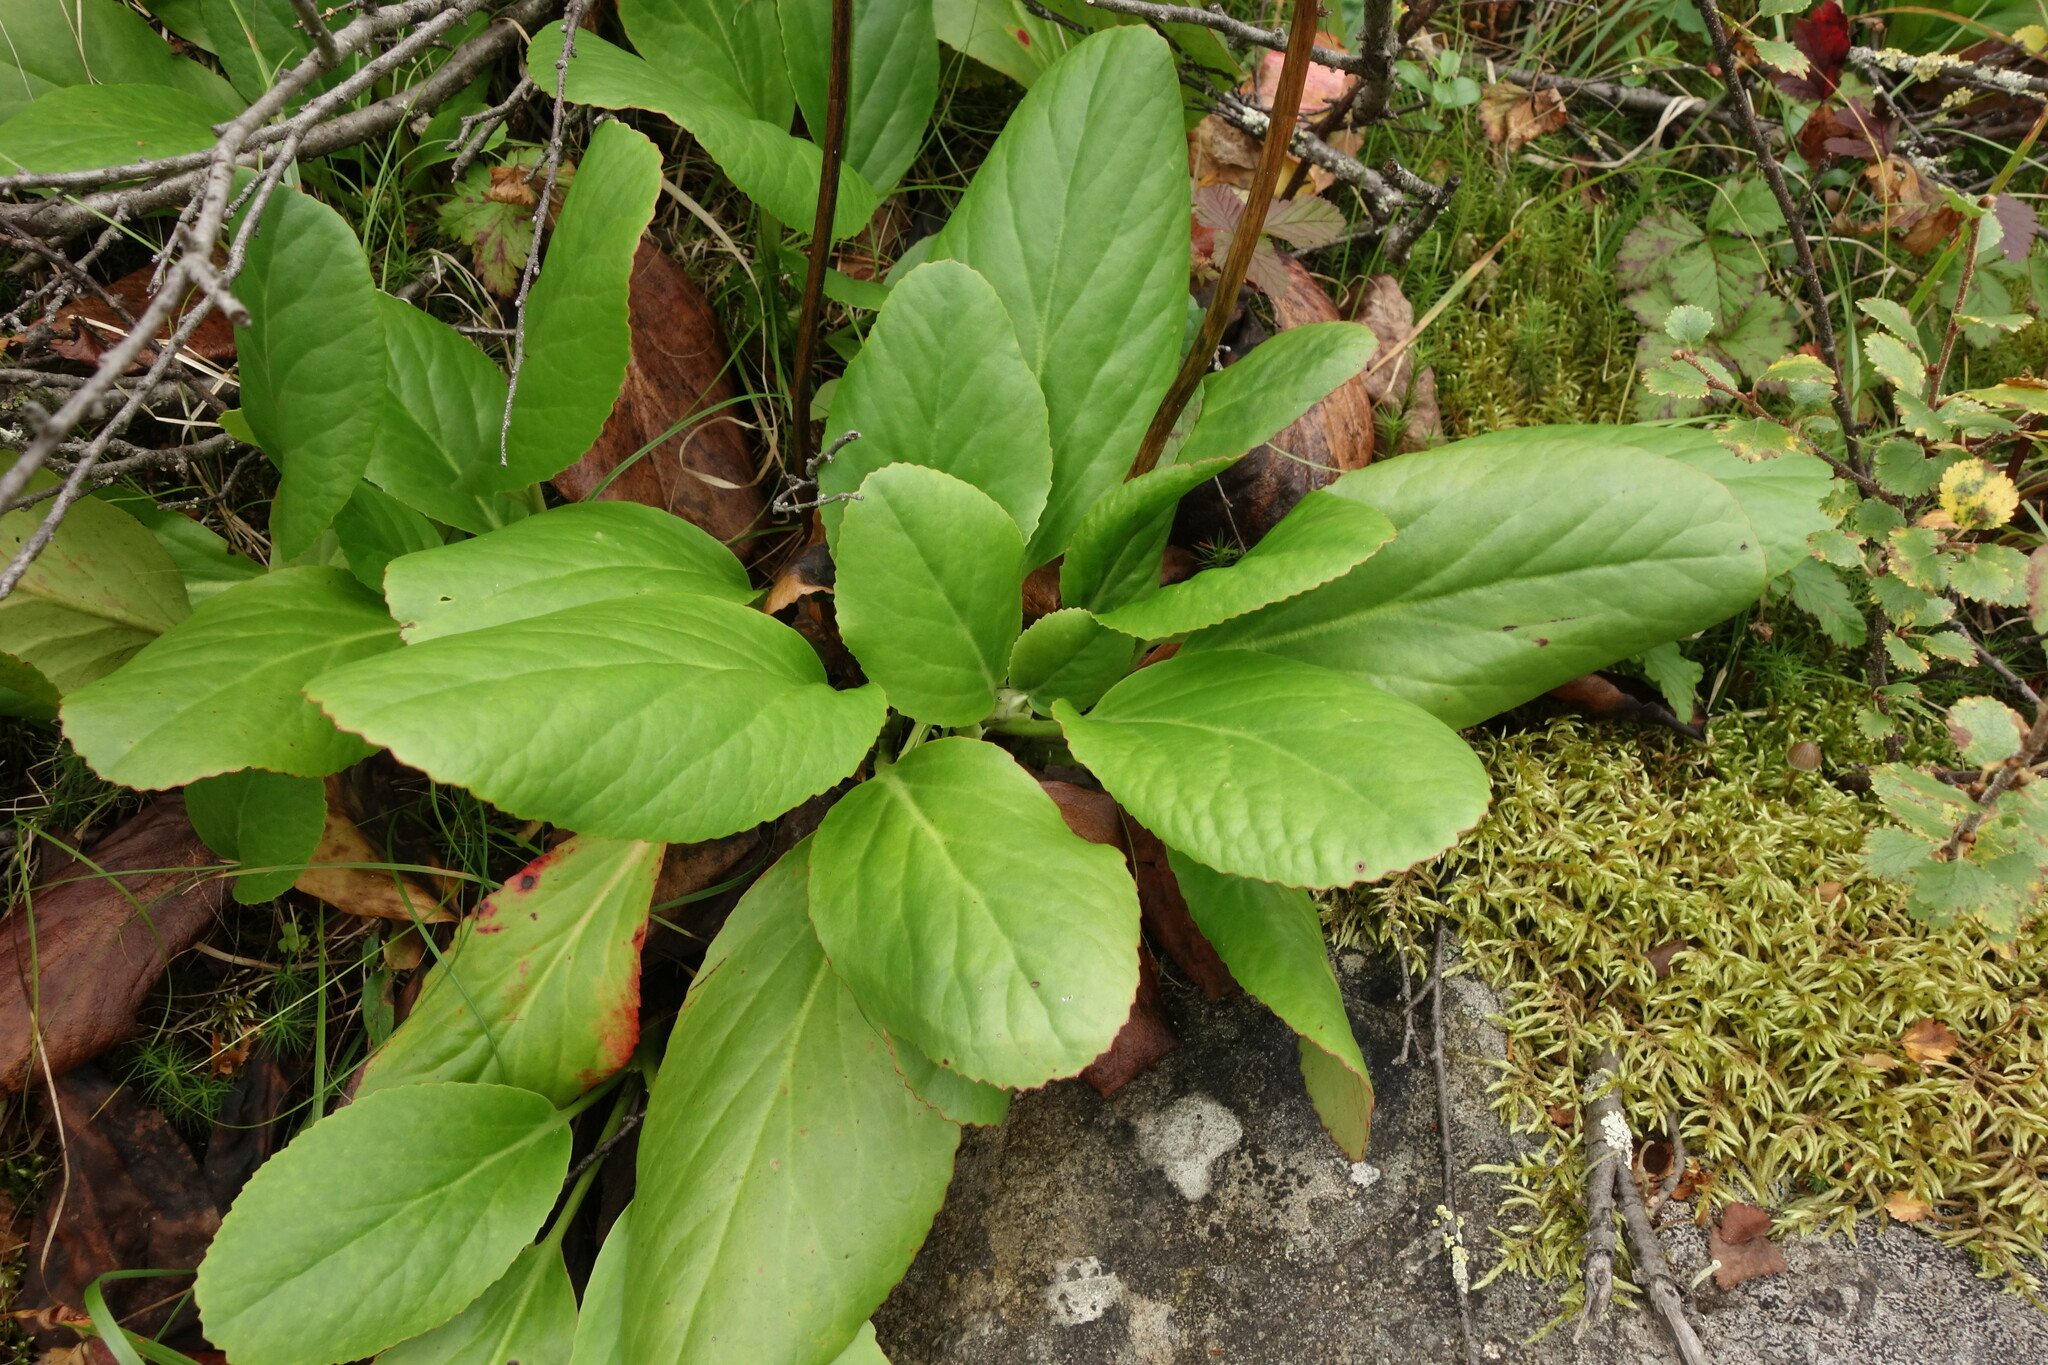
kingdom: Plantae
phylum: Tracheophyta
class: Magnoliopsida
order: Saxifragales
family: Saxifragaceae
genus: Bergenia
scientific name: Bergenia crassifolia
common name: Elephant-ears
